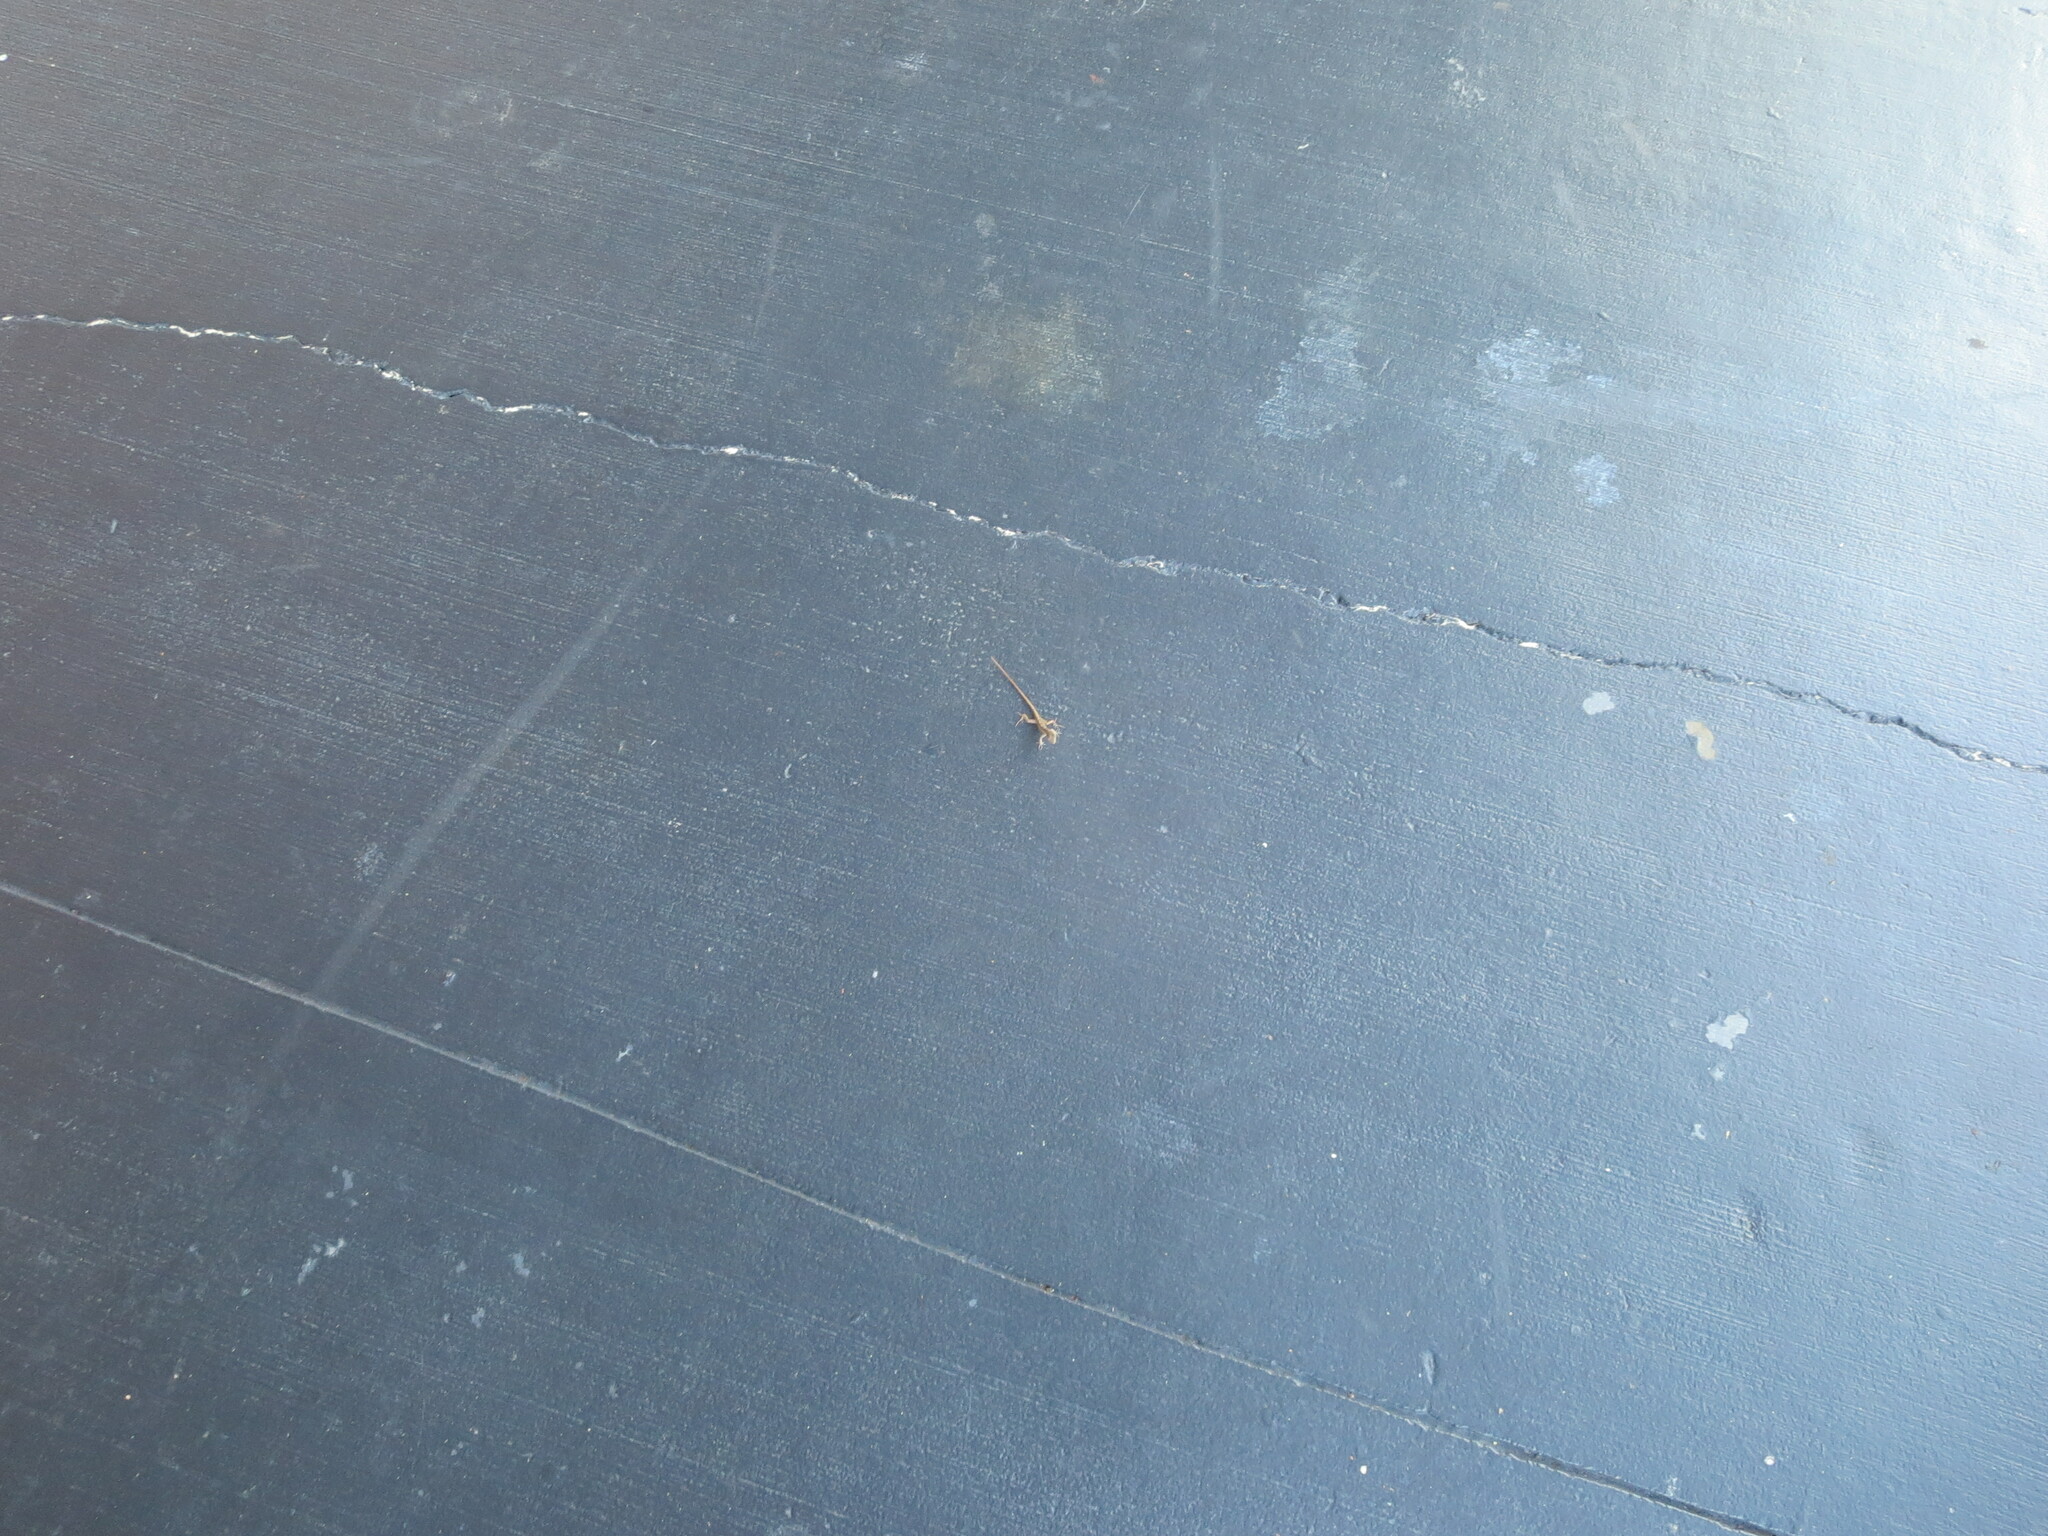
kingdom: Animalia
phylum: Chordata
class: Squamata
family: Dactyloidae
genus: Anolis
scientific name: Anolis sagrei
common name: Brown anole
